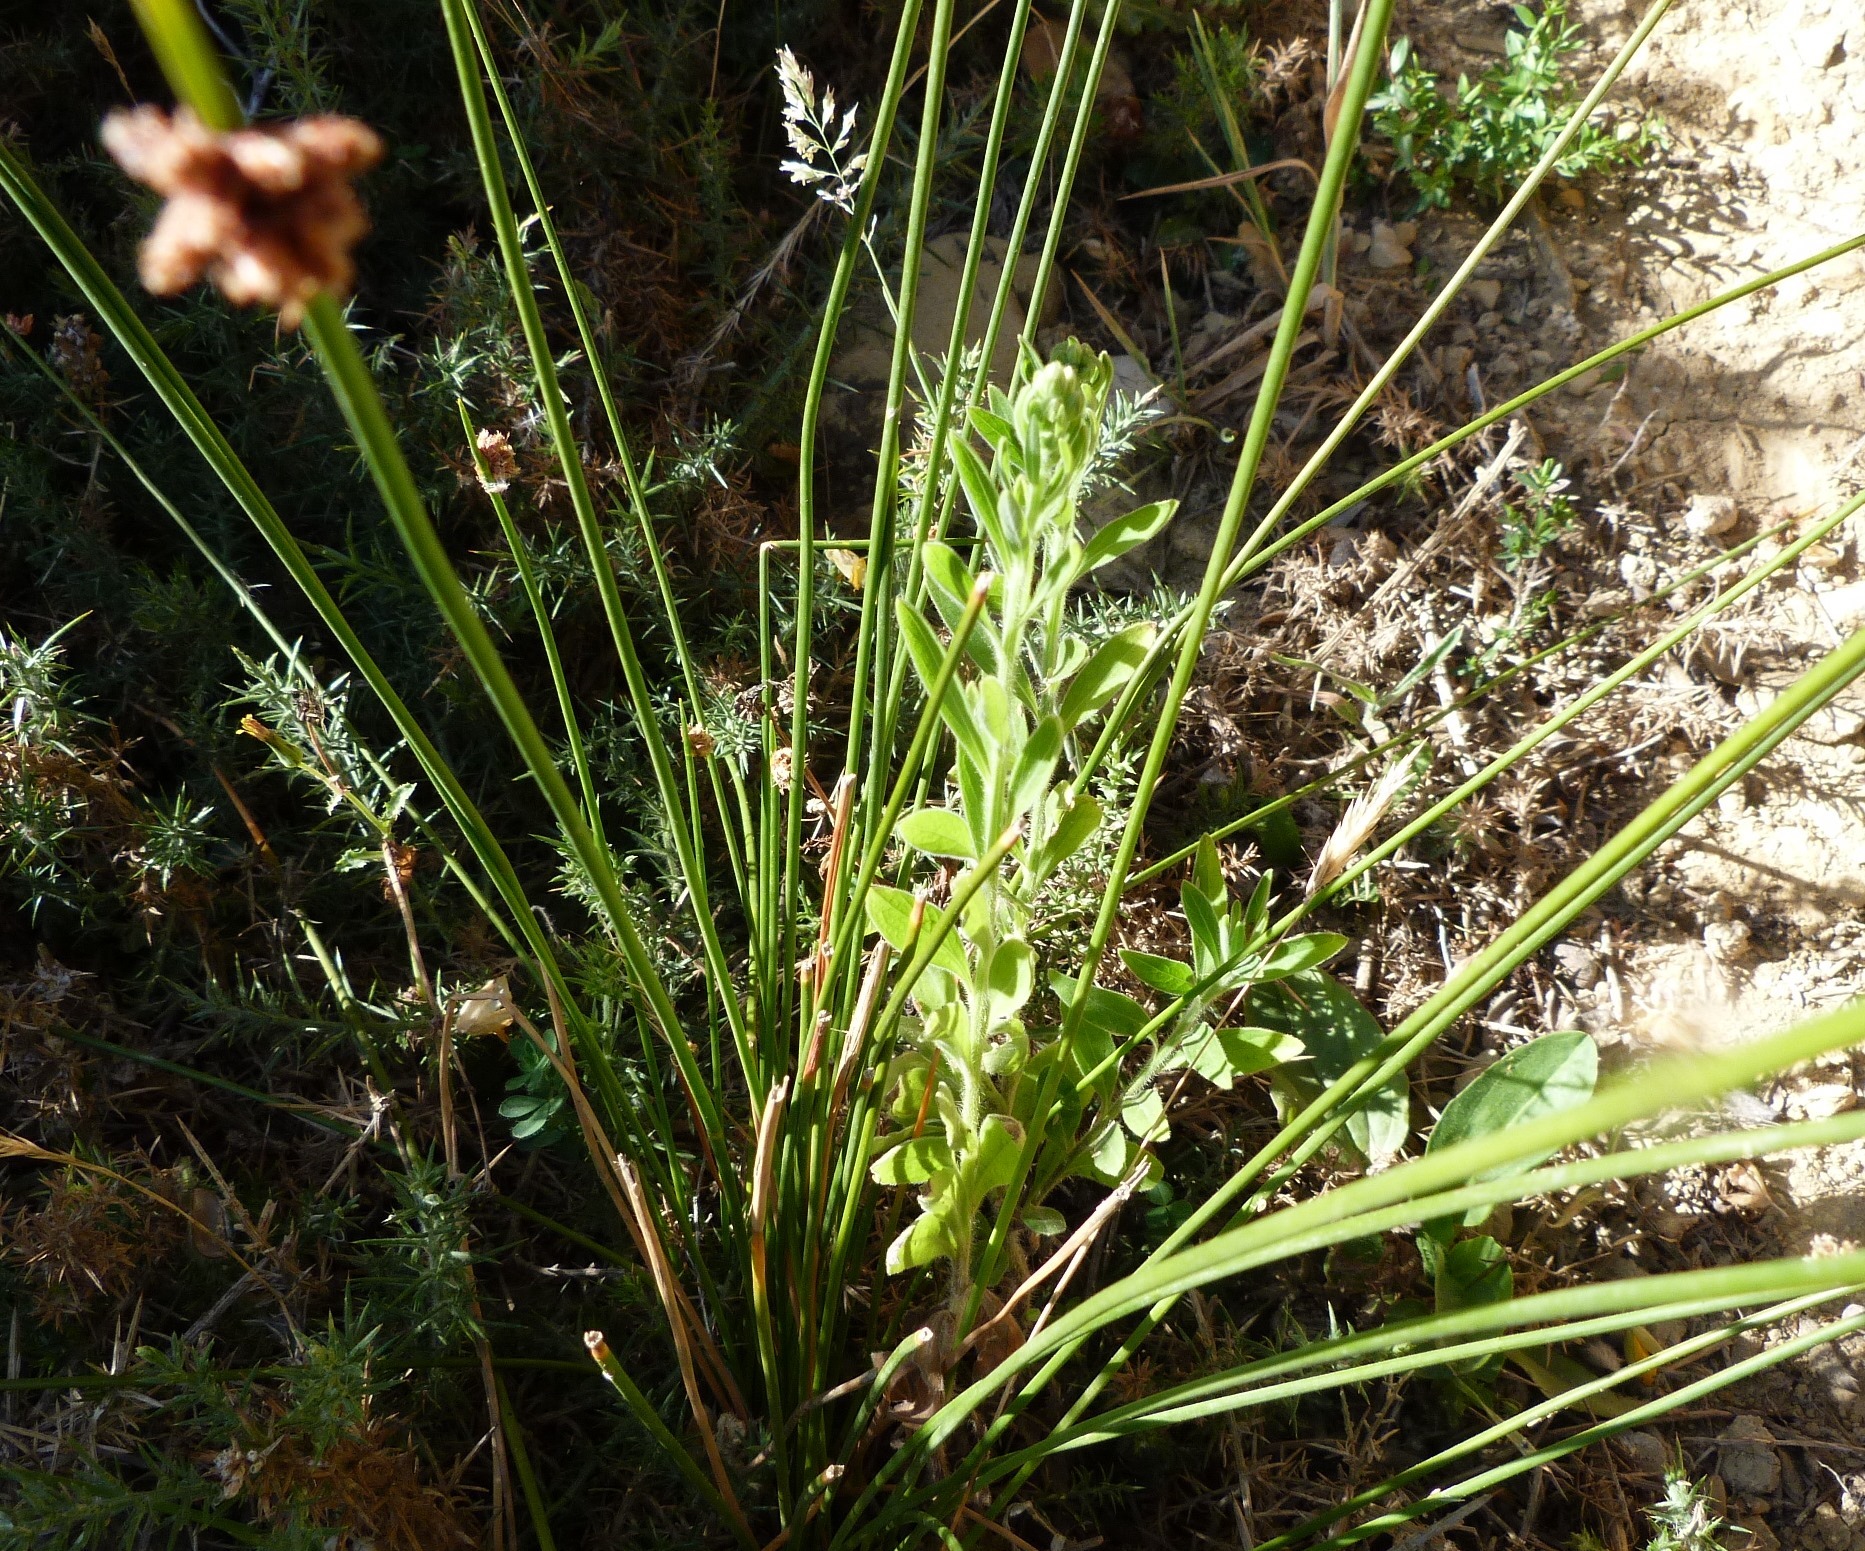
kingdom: Plantae
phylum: Tracheophyta
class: Magnoliopsida
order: Asterales
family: Asteraceae
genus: Erigeron
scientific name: Erigeron sumatrensis
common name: Daisy
